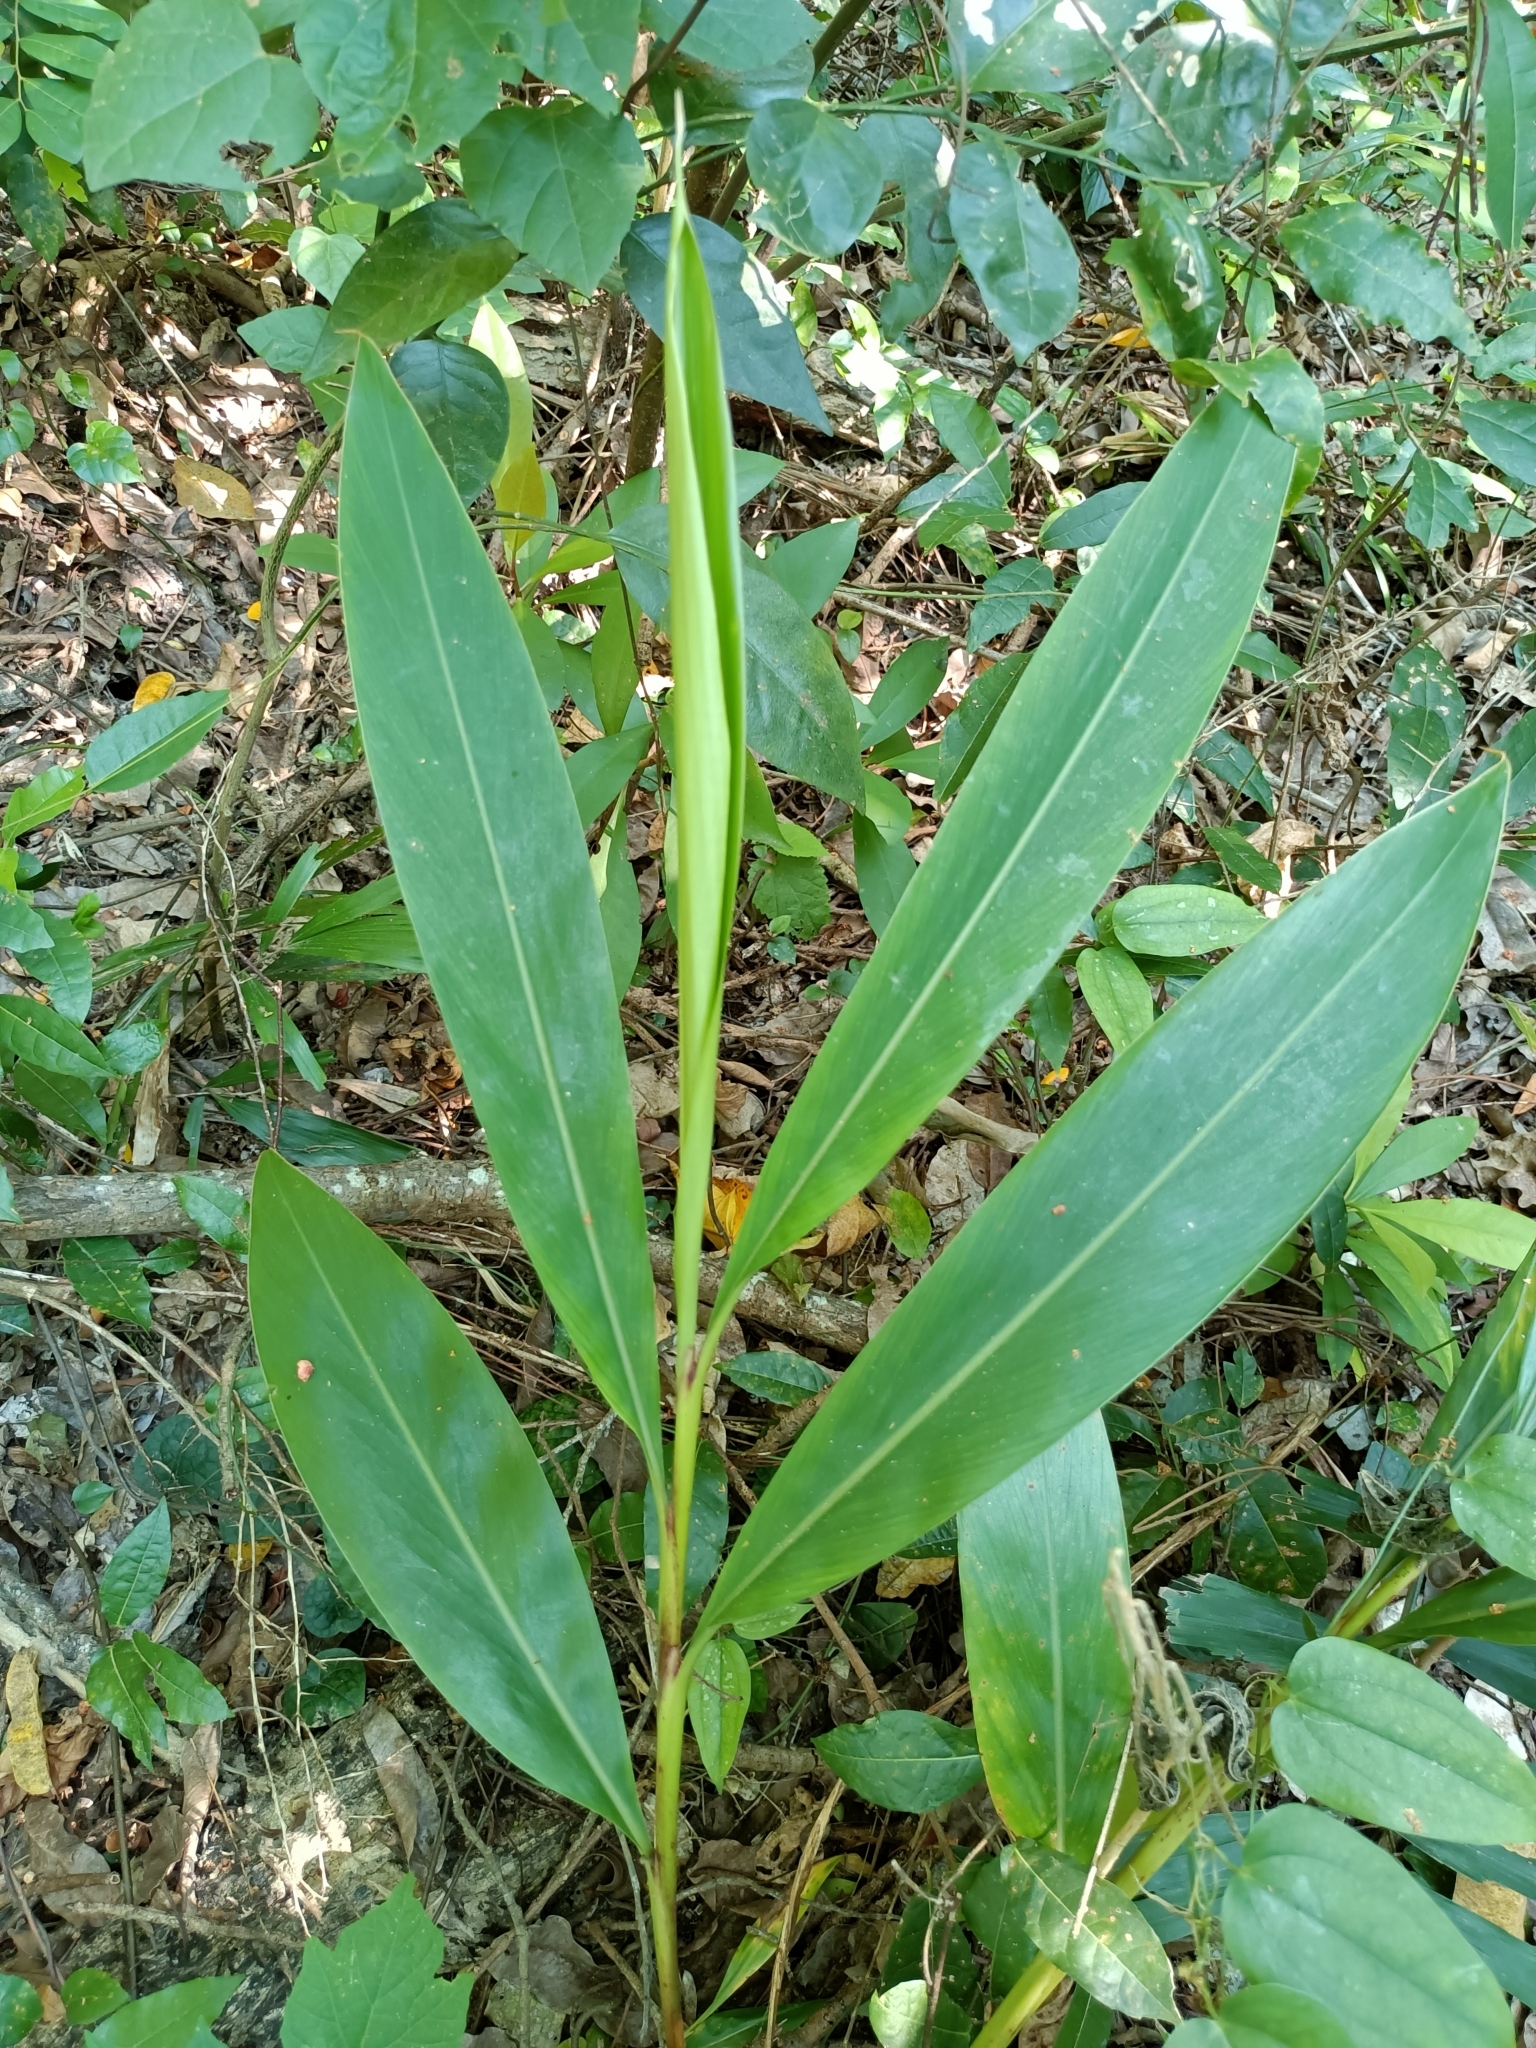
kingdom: Plantae
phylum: Tracheophyta
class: Liliopsida
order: Zingiberales
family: Zingiberaceae
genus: Alpinia
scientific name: Alpinia zerumbet
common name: Shellplant
